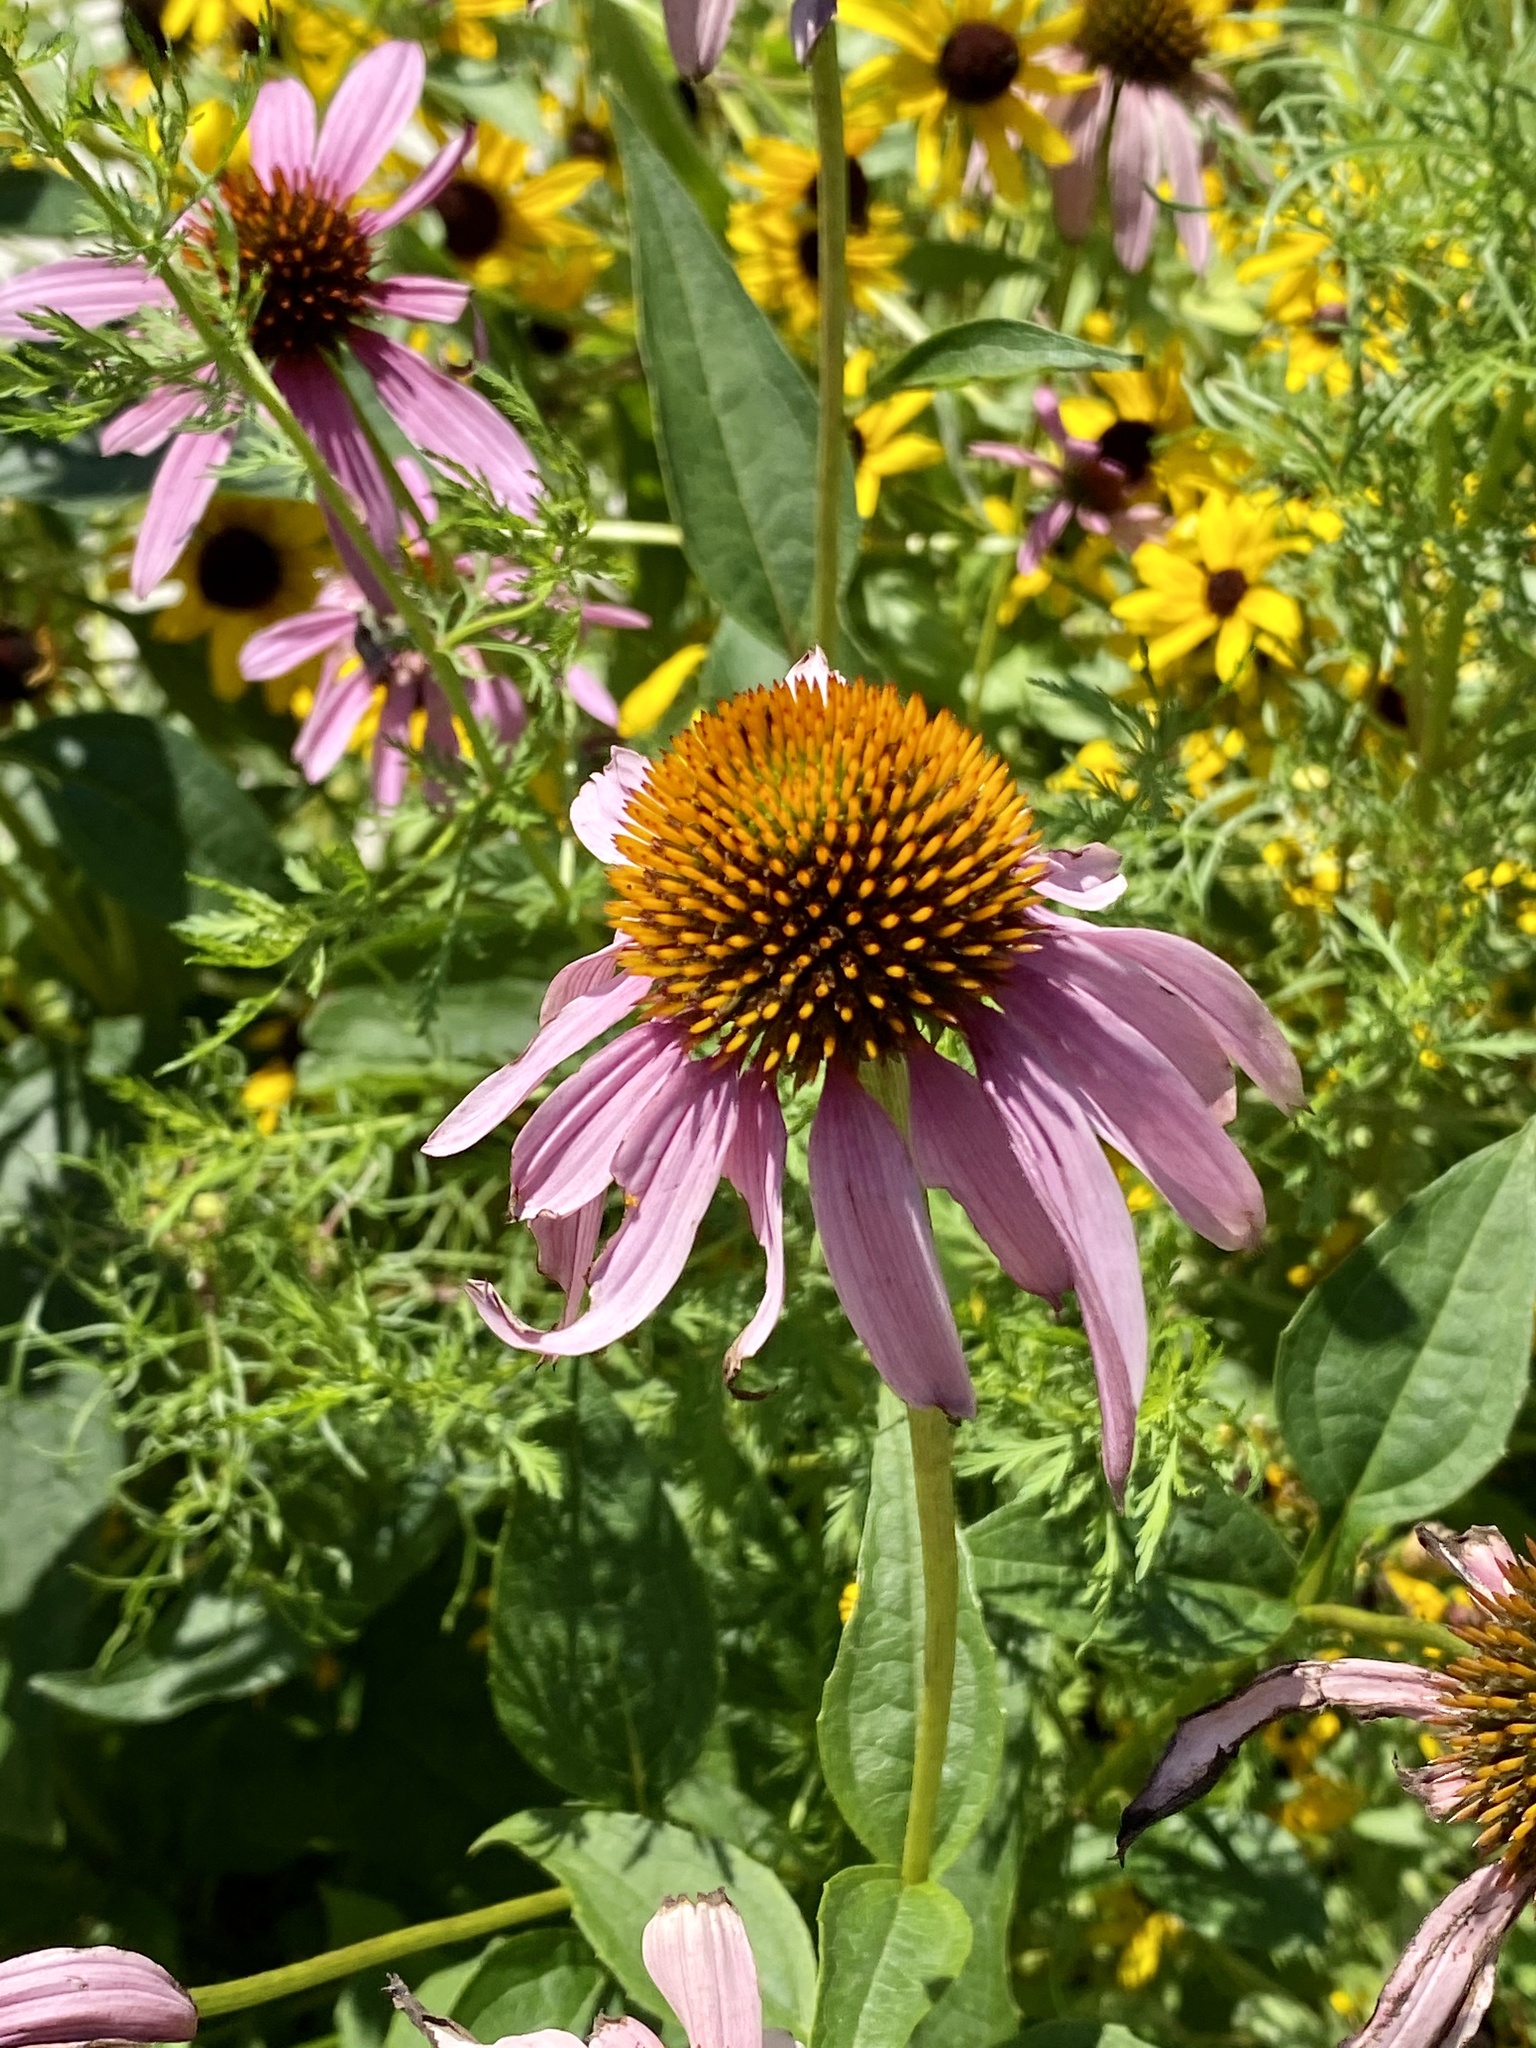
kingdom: Plantae
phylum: Tracheophyta
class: Magnoliopsida
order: Asterales
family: Asteraceae
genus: Echinacea
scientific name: Echinacea purpurea
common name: Broad-leaved purple coneflower
